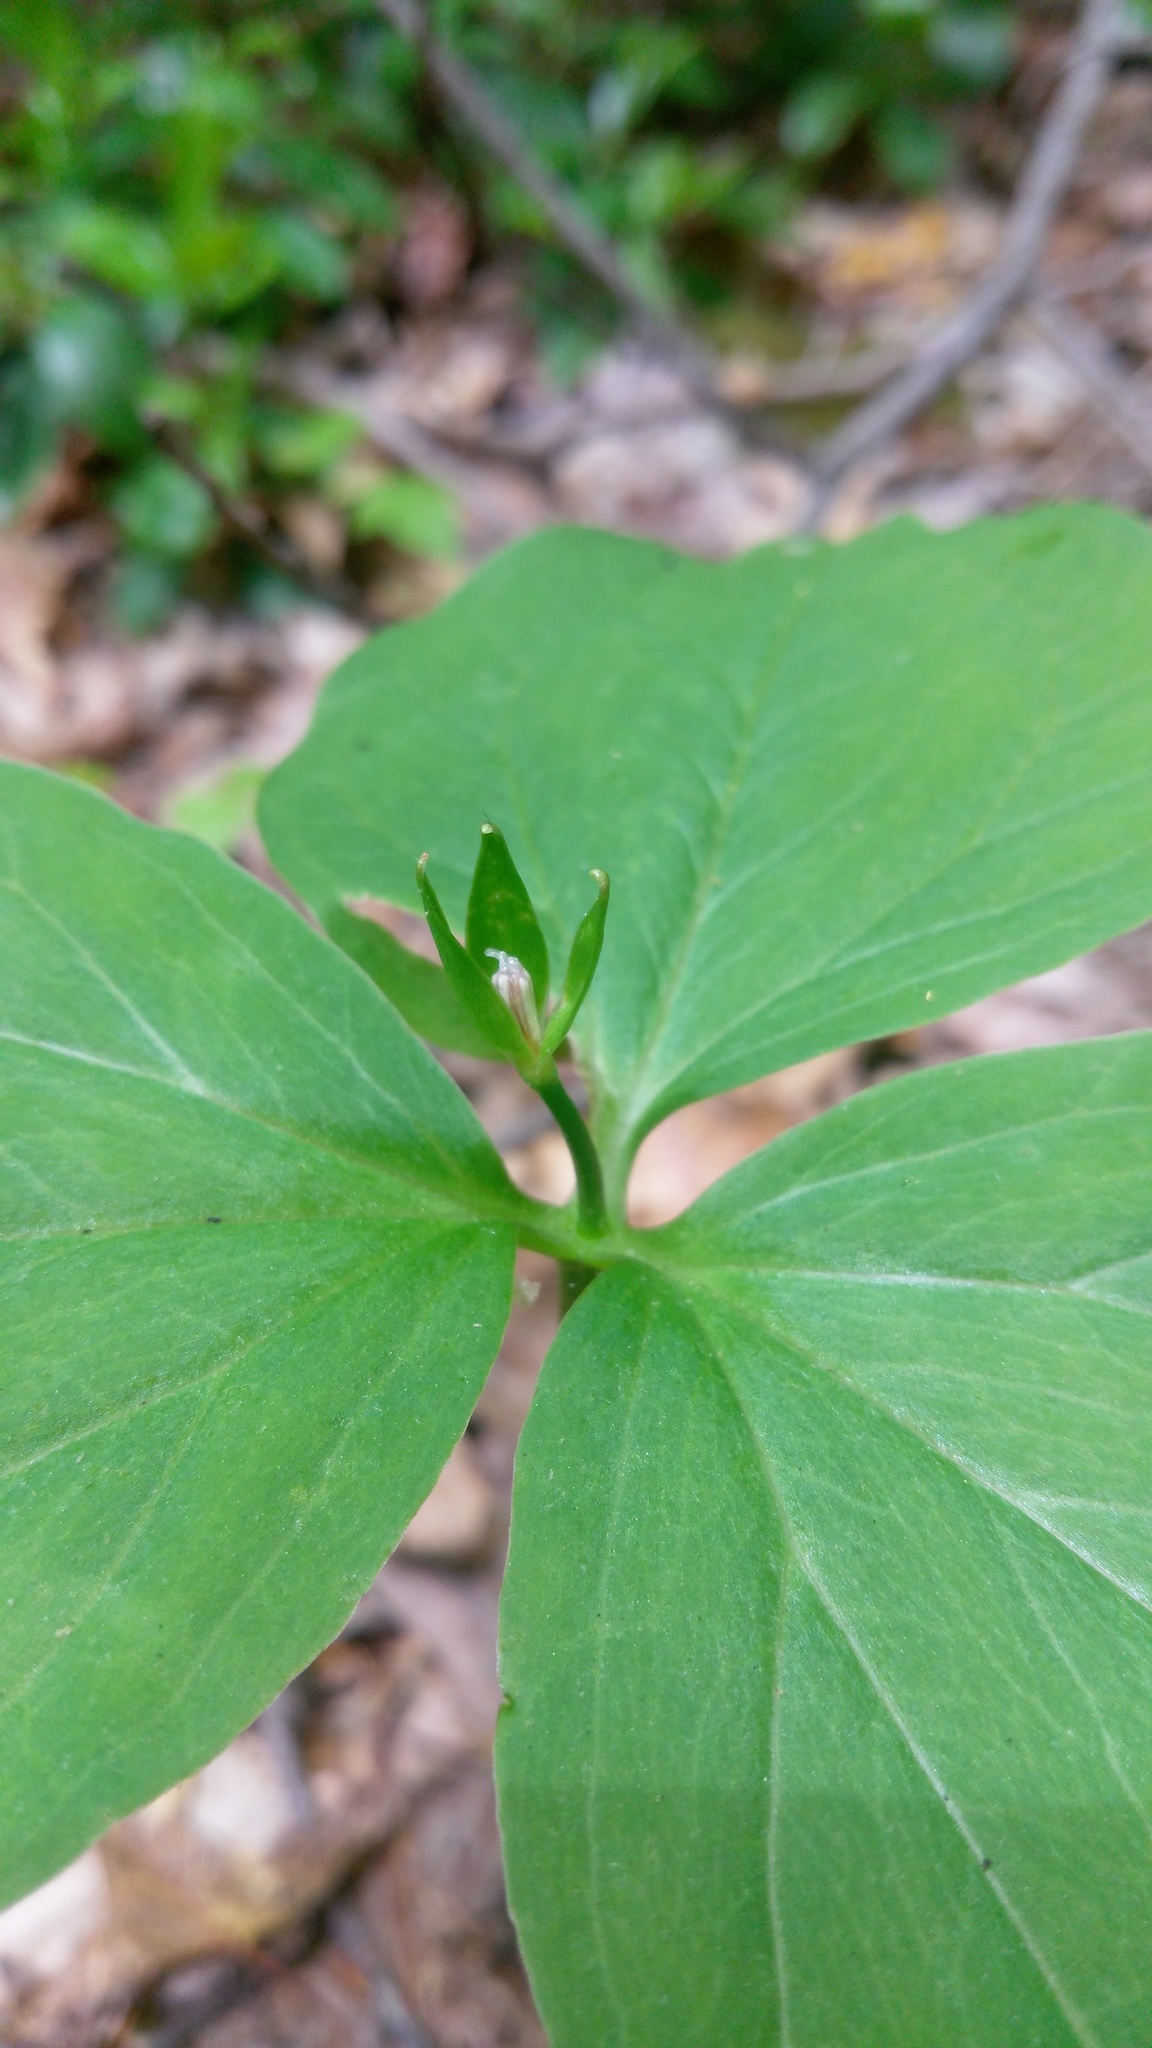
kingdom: Plantae
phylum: Tracheophyta
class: Liliopsida
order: Liliales
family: Melanthiaceae
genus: Trillium
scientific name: Trillium undulatum
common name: Paint trillium
